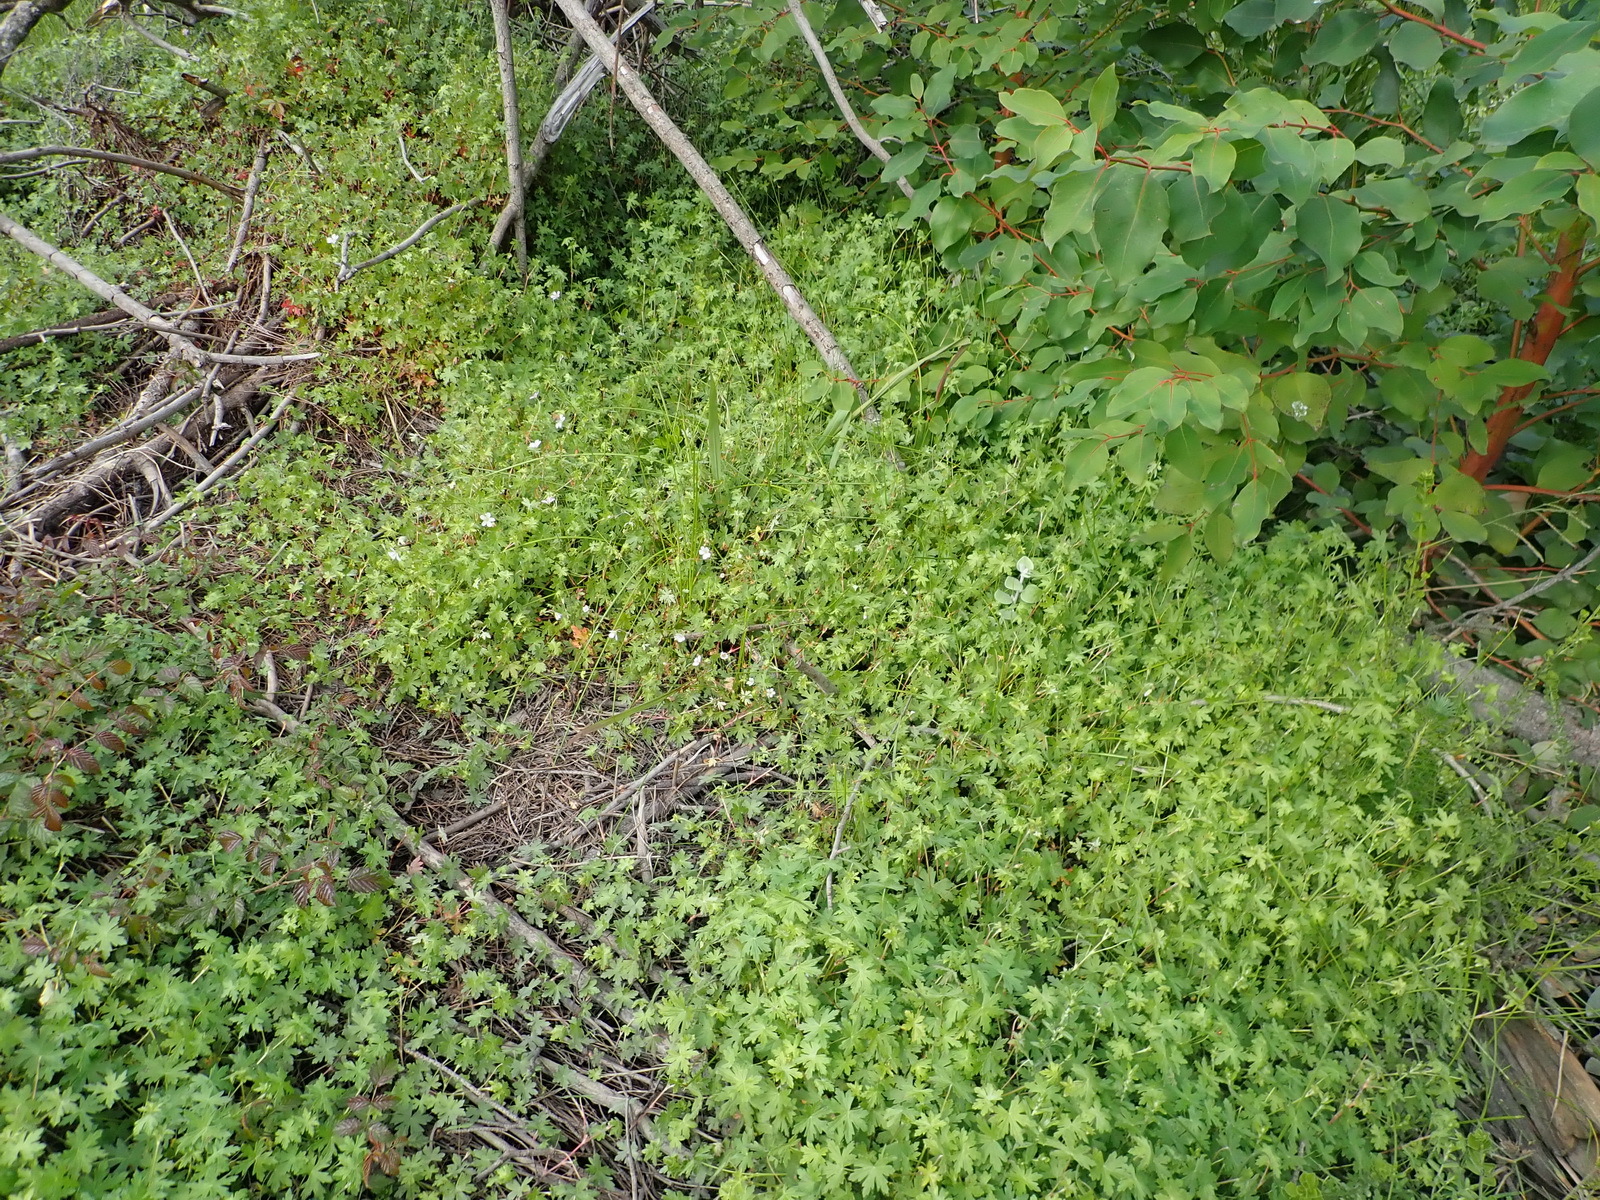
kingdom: Plantae
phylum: Tracheophyta
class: Magnoliopsida
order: Geraniales
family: Geraniaceae
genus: Geranium
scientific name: Geranium ornithopodon
